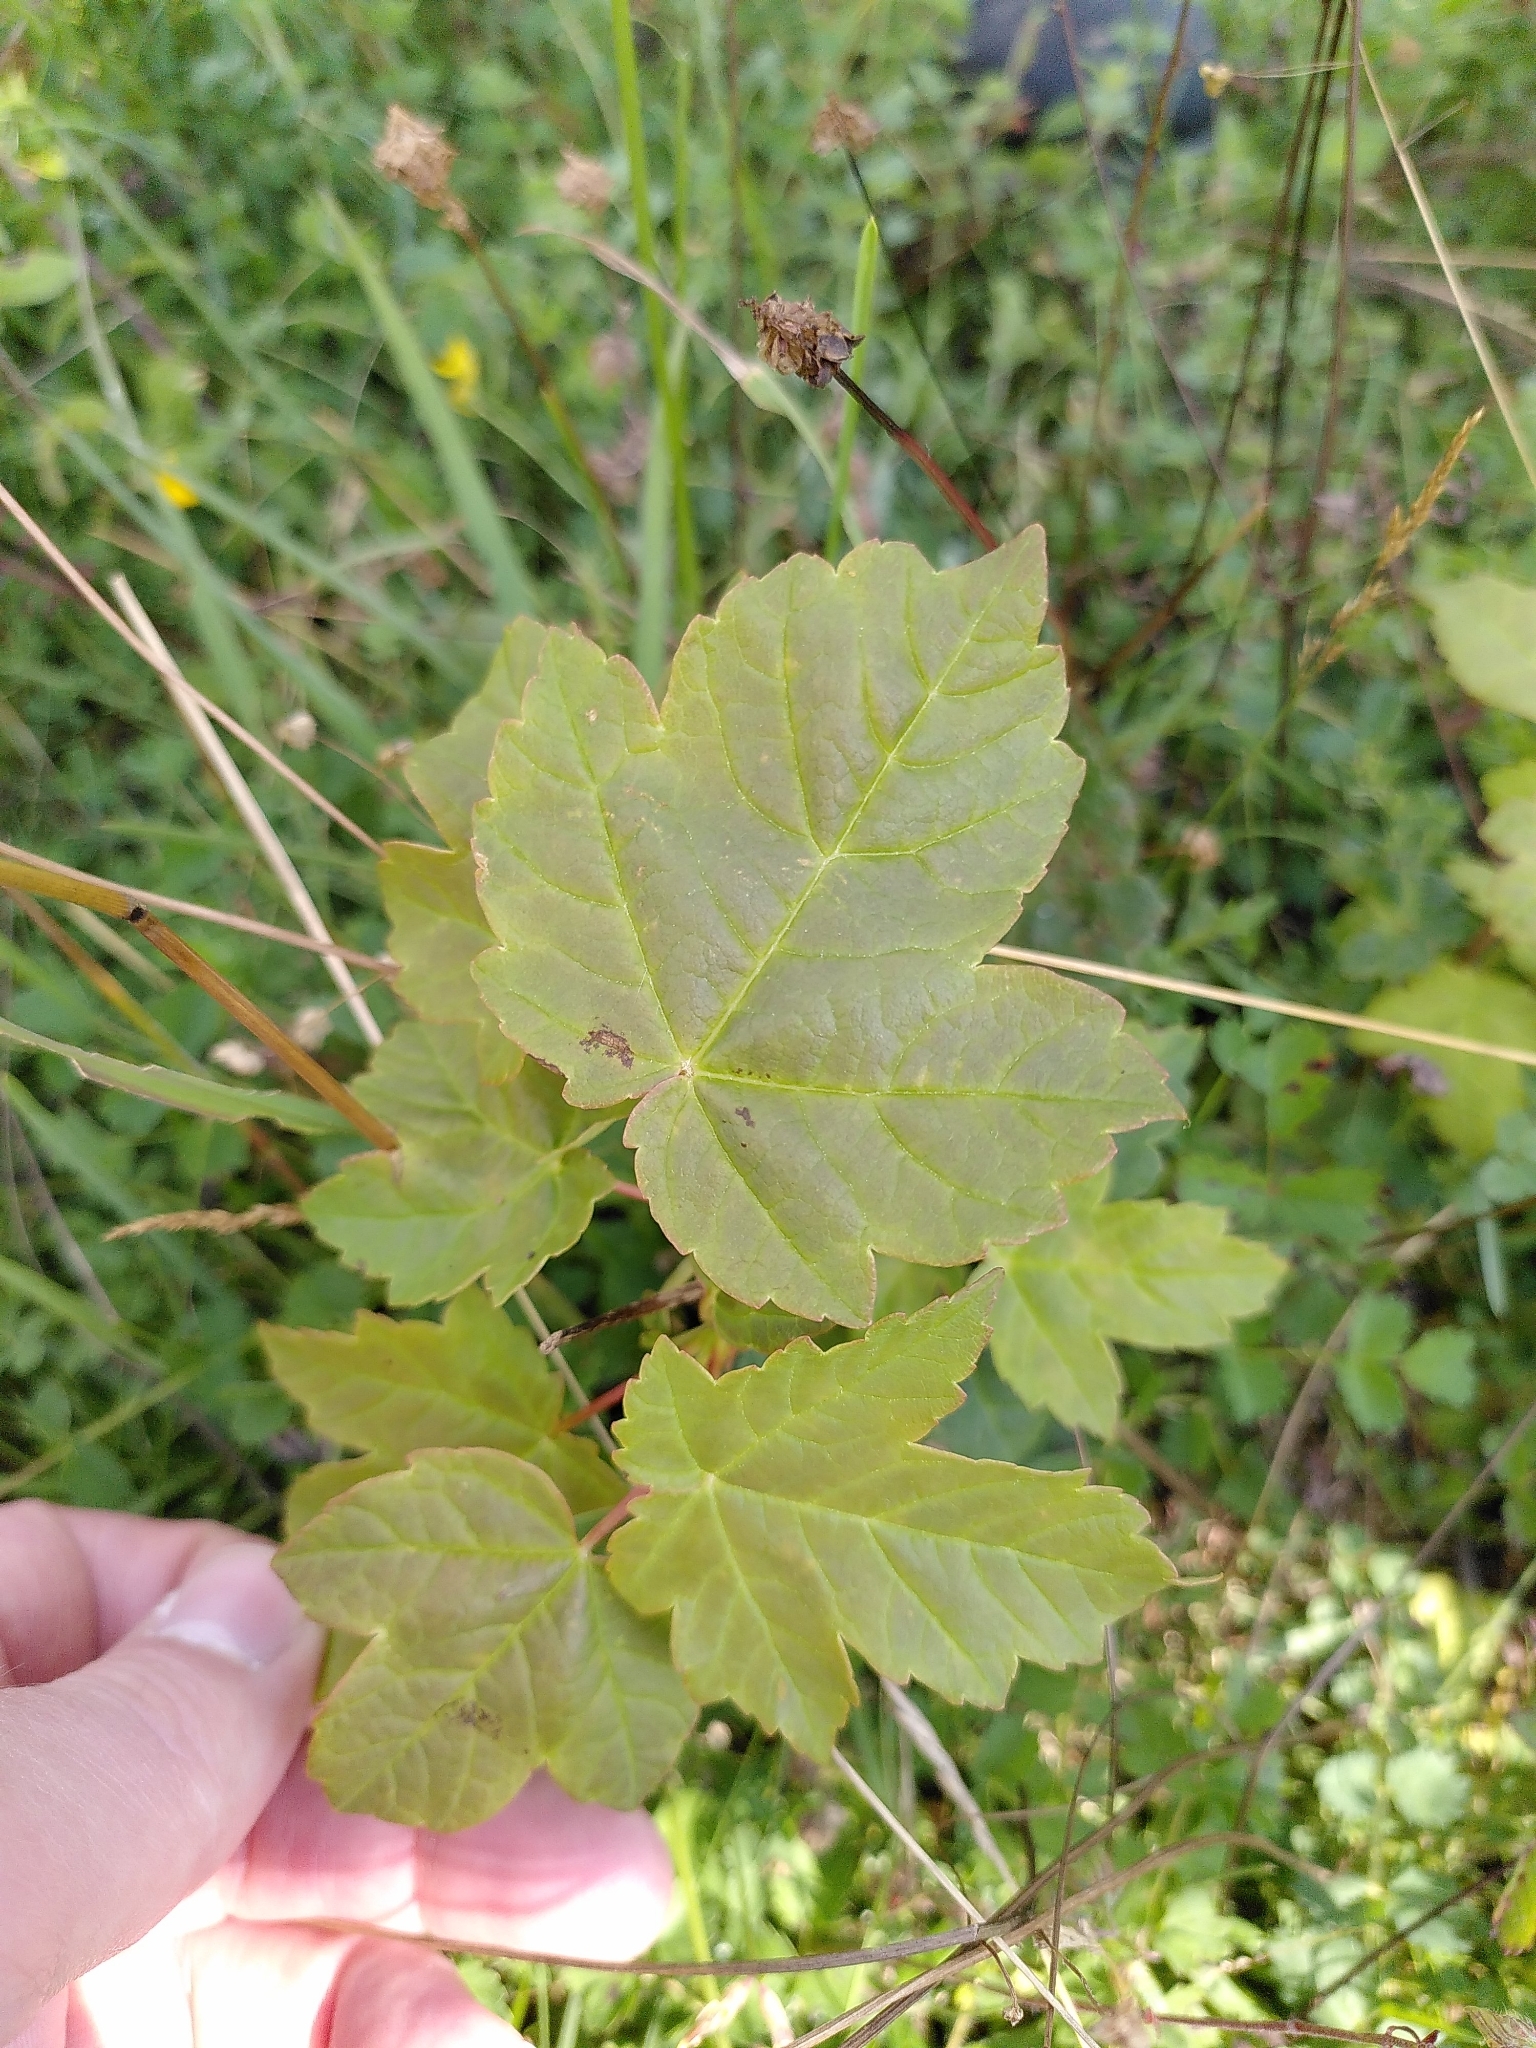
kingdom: Plantae
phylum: Tracheophyta
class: Magnoliopsida
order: Sapindales
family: Sapindaceae
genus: Acer
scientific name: Acer pseudoplatanus
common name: Sycamore
